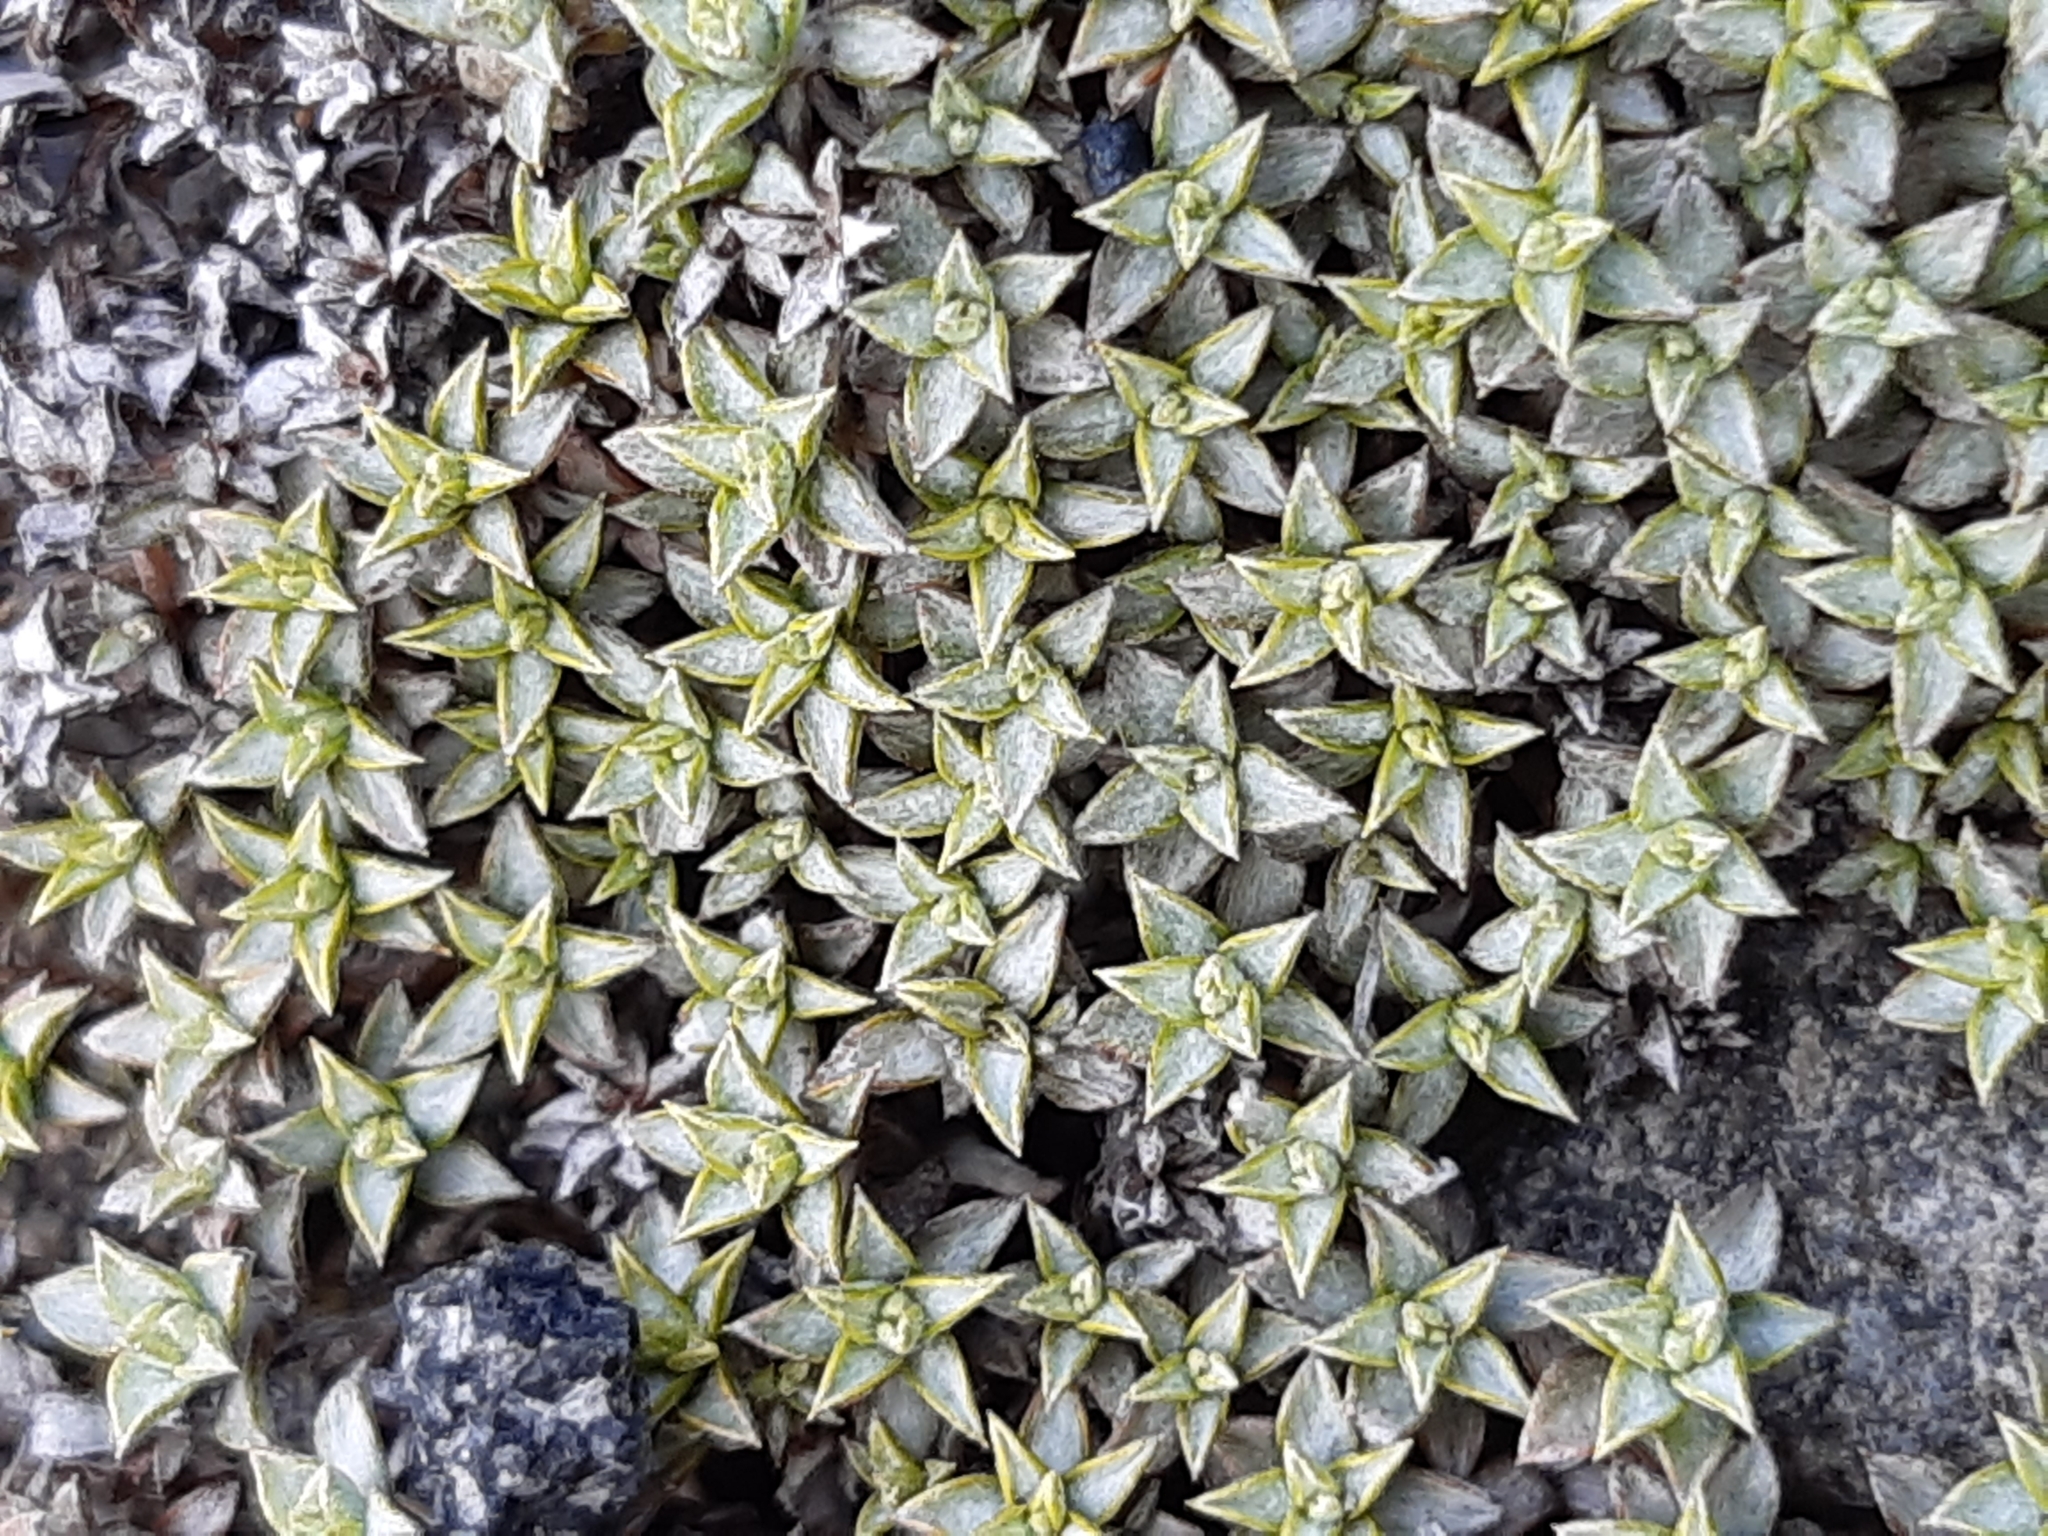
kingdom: Plantae
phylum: Tracheophyta
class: Magnoliopsida
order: Asterales
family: Asteraceae
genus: Raoulia
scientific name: Raoulia tenuicaulis
